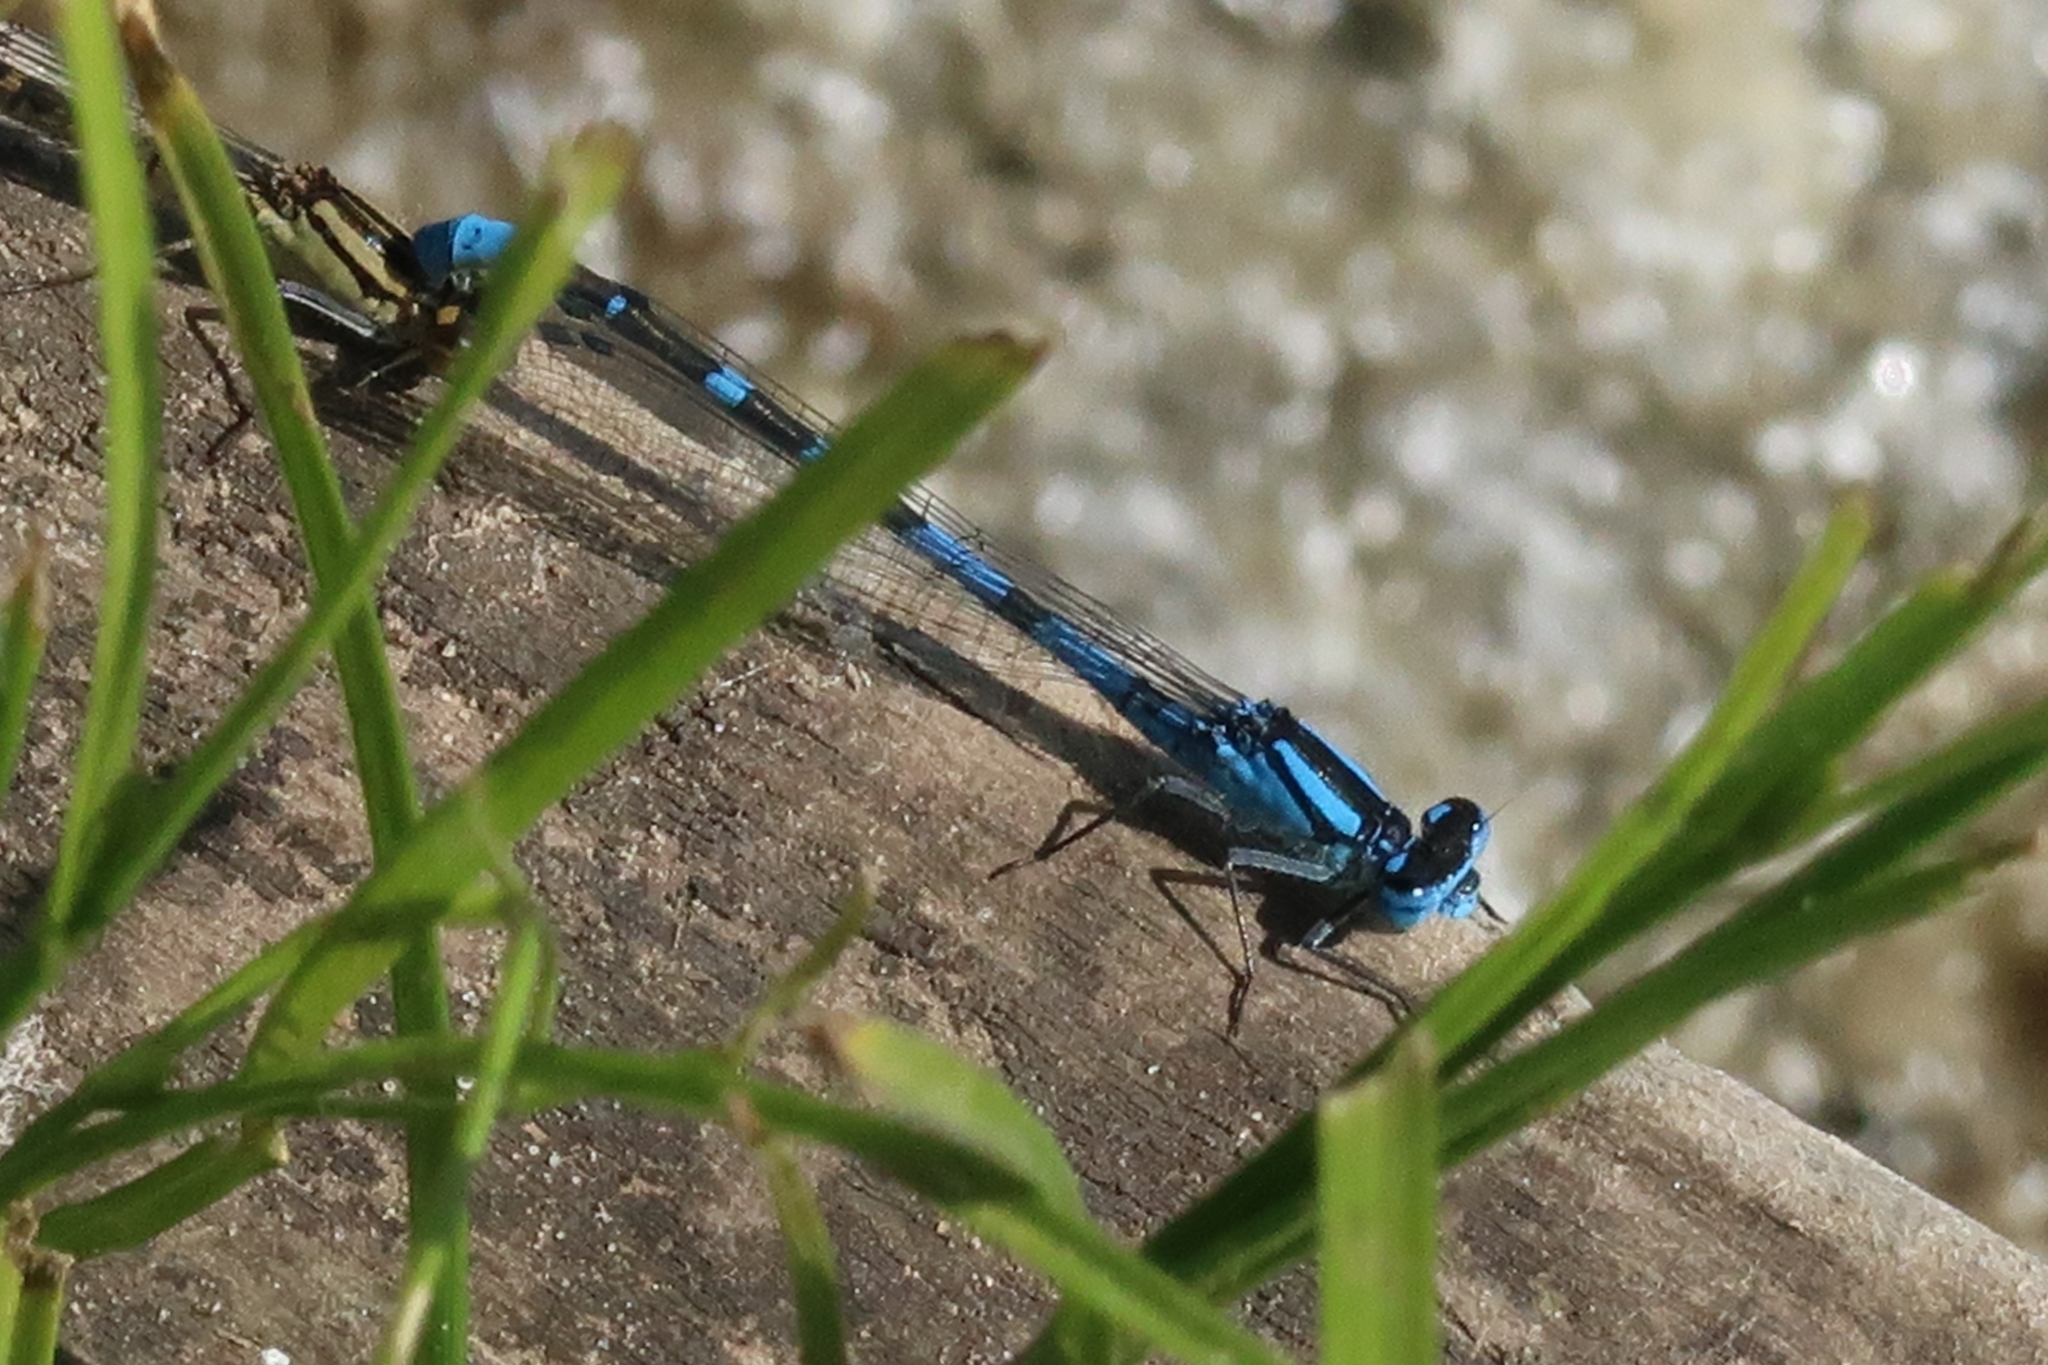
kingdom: Animalia
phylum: Arthropoda
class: Insecta
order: Odonata
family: Coenagrionidae
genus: Enallagma
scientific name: Enallagma cyathigerum
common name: Common blue damselfly
